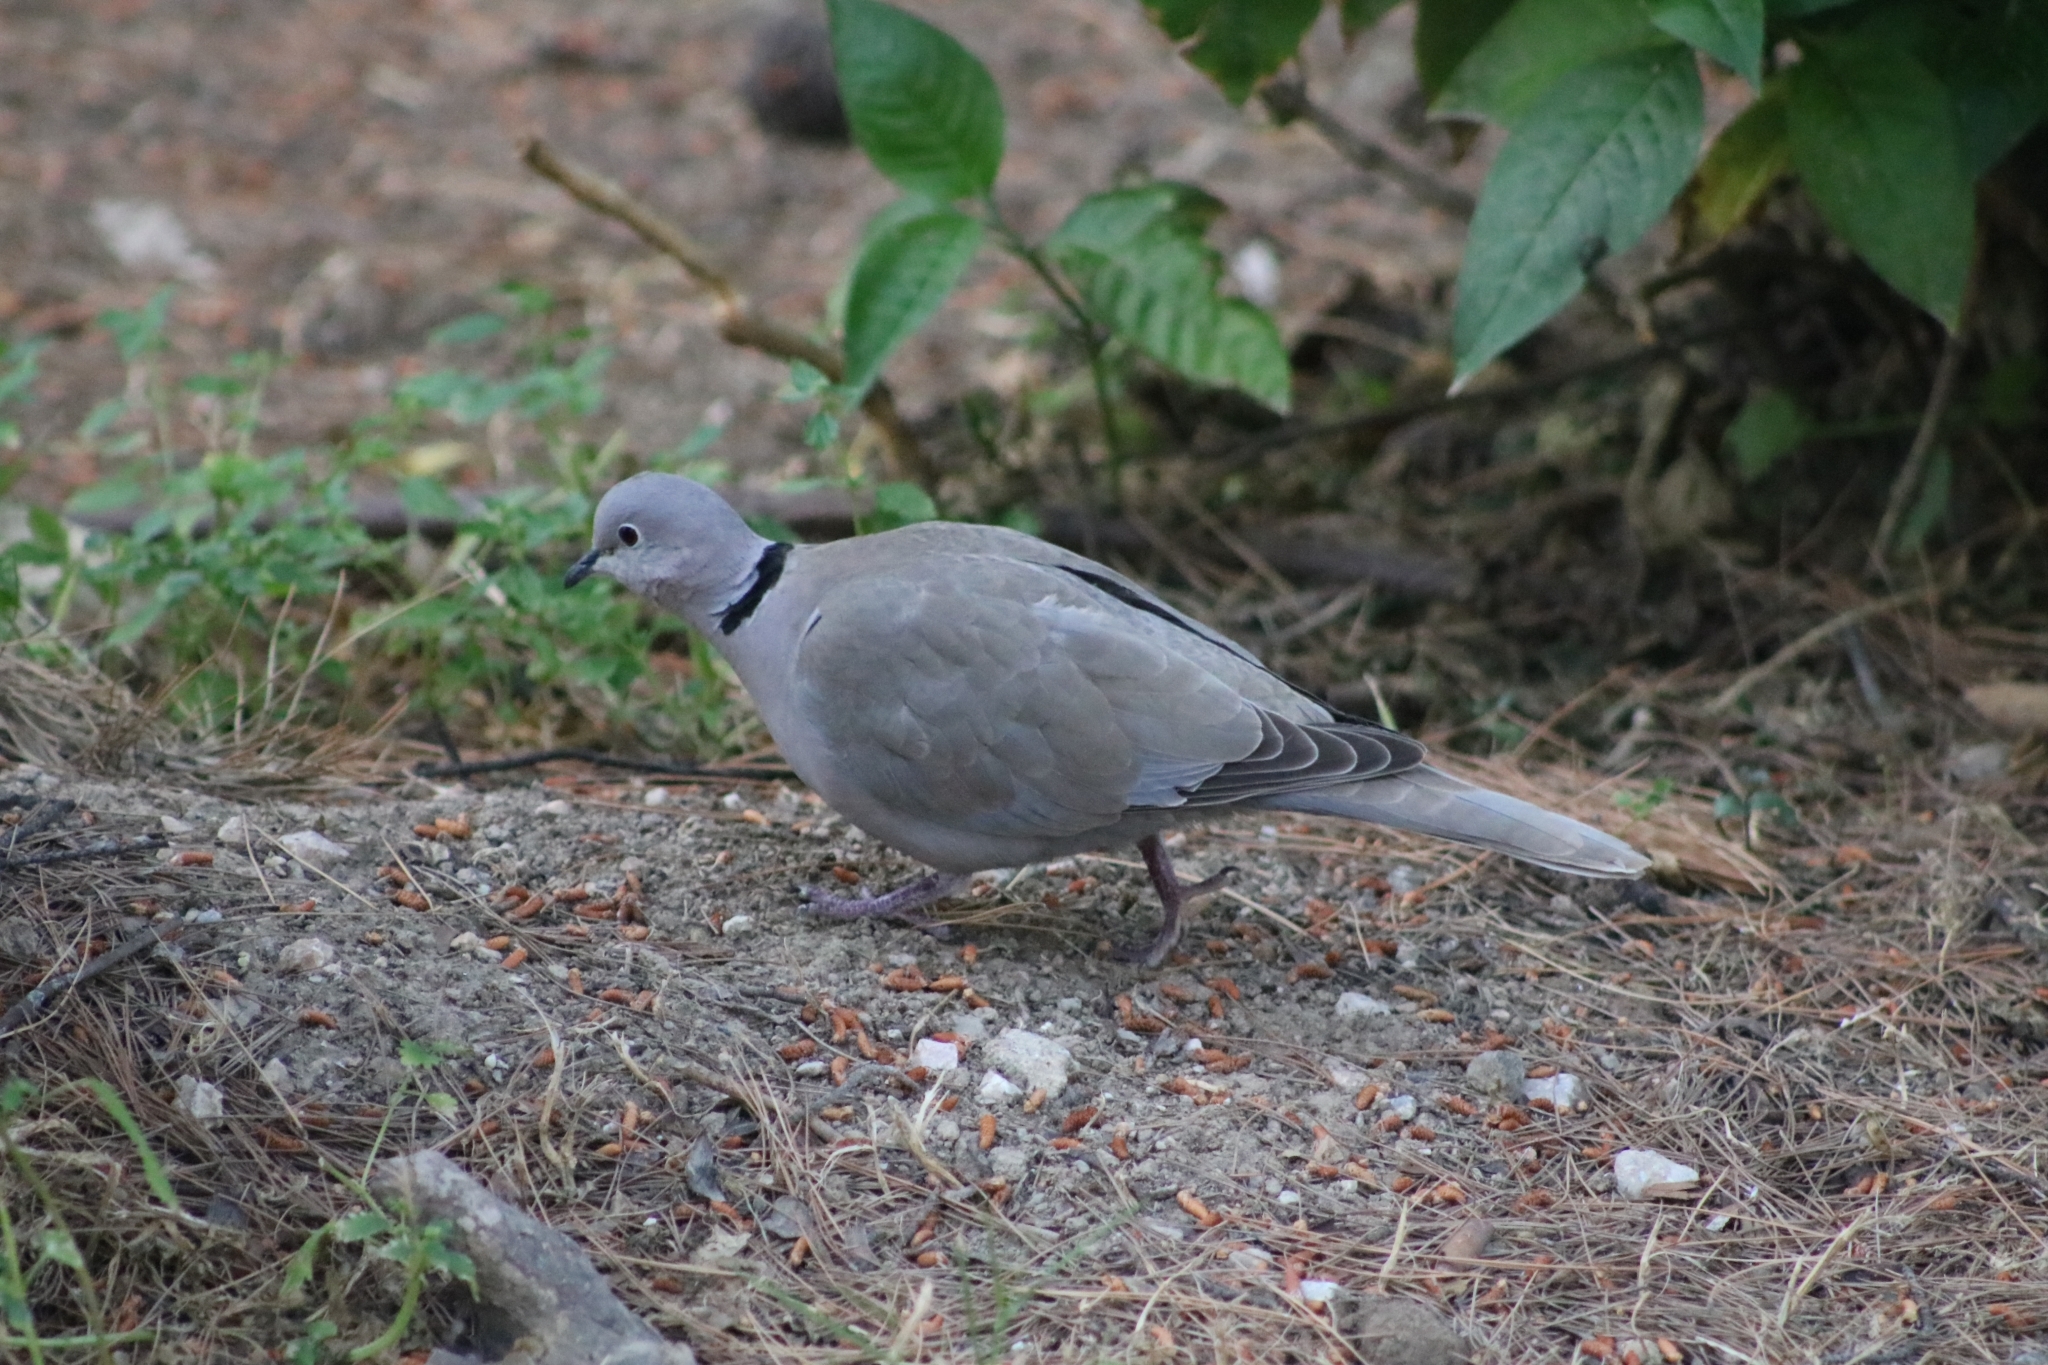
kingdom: Animalia
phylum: Chordata
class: Aves
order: Columbiformes
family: Columbidae
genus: Streptopelia
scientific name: Streptopelia decaocto
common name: Eurasian collared dove
